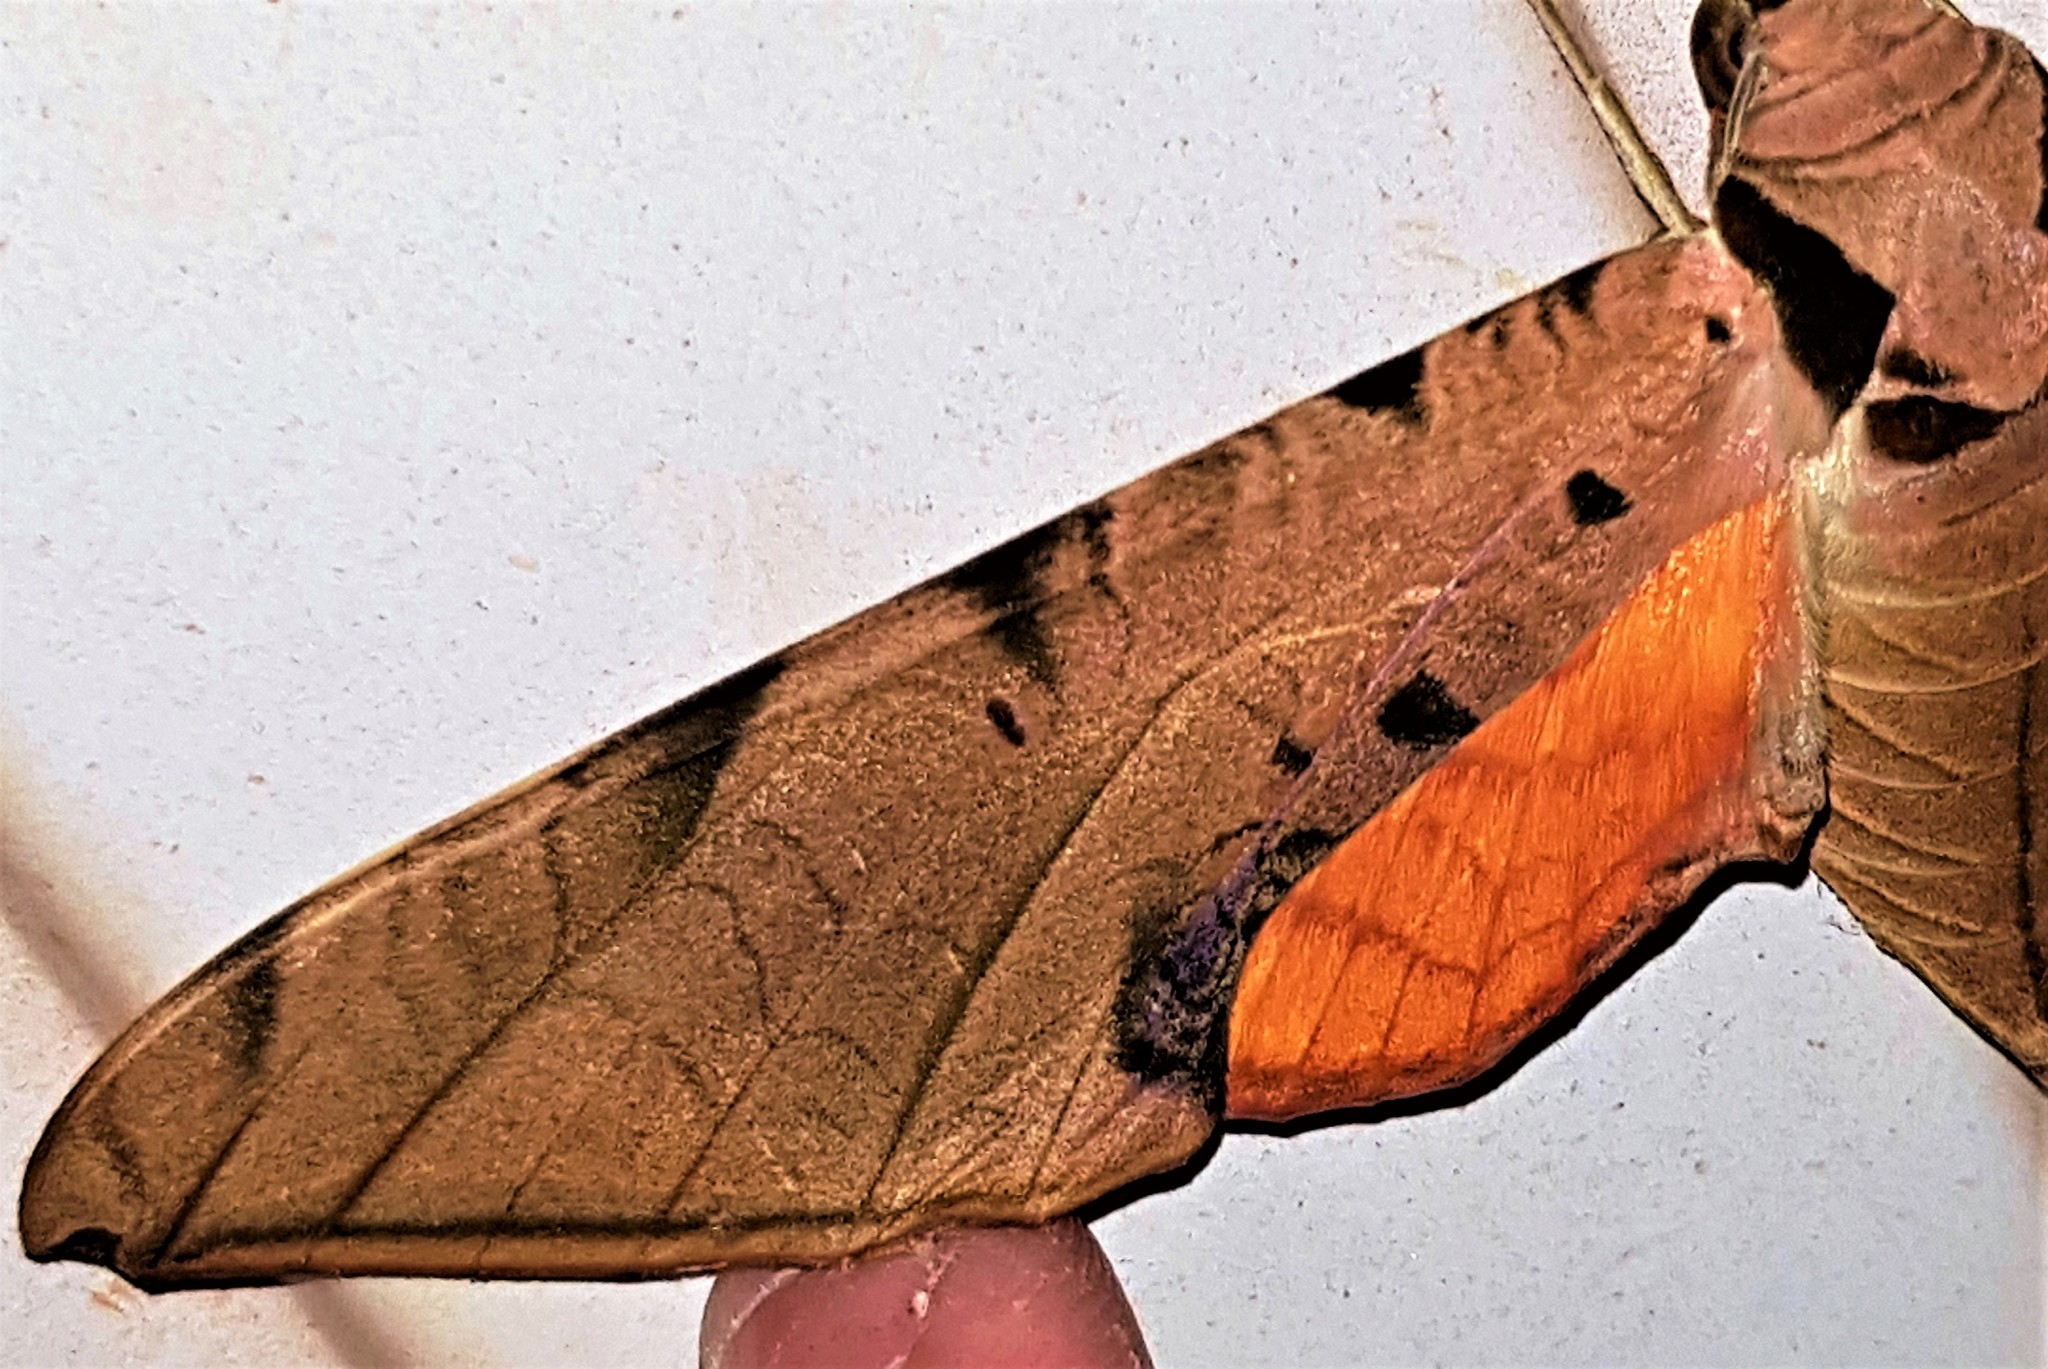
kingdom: Animalia
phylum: Arthropoda
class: Insecta
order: Lepidoptera
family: Sphingidae
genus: Protambulyx
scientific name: Protambulyx strigilis
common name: Streaked sphinx
